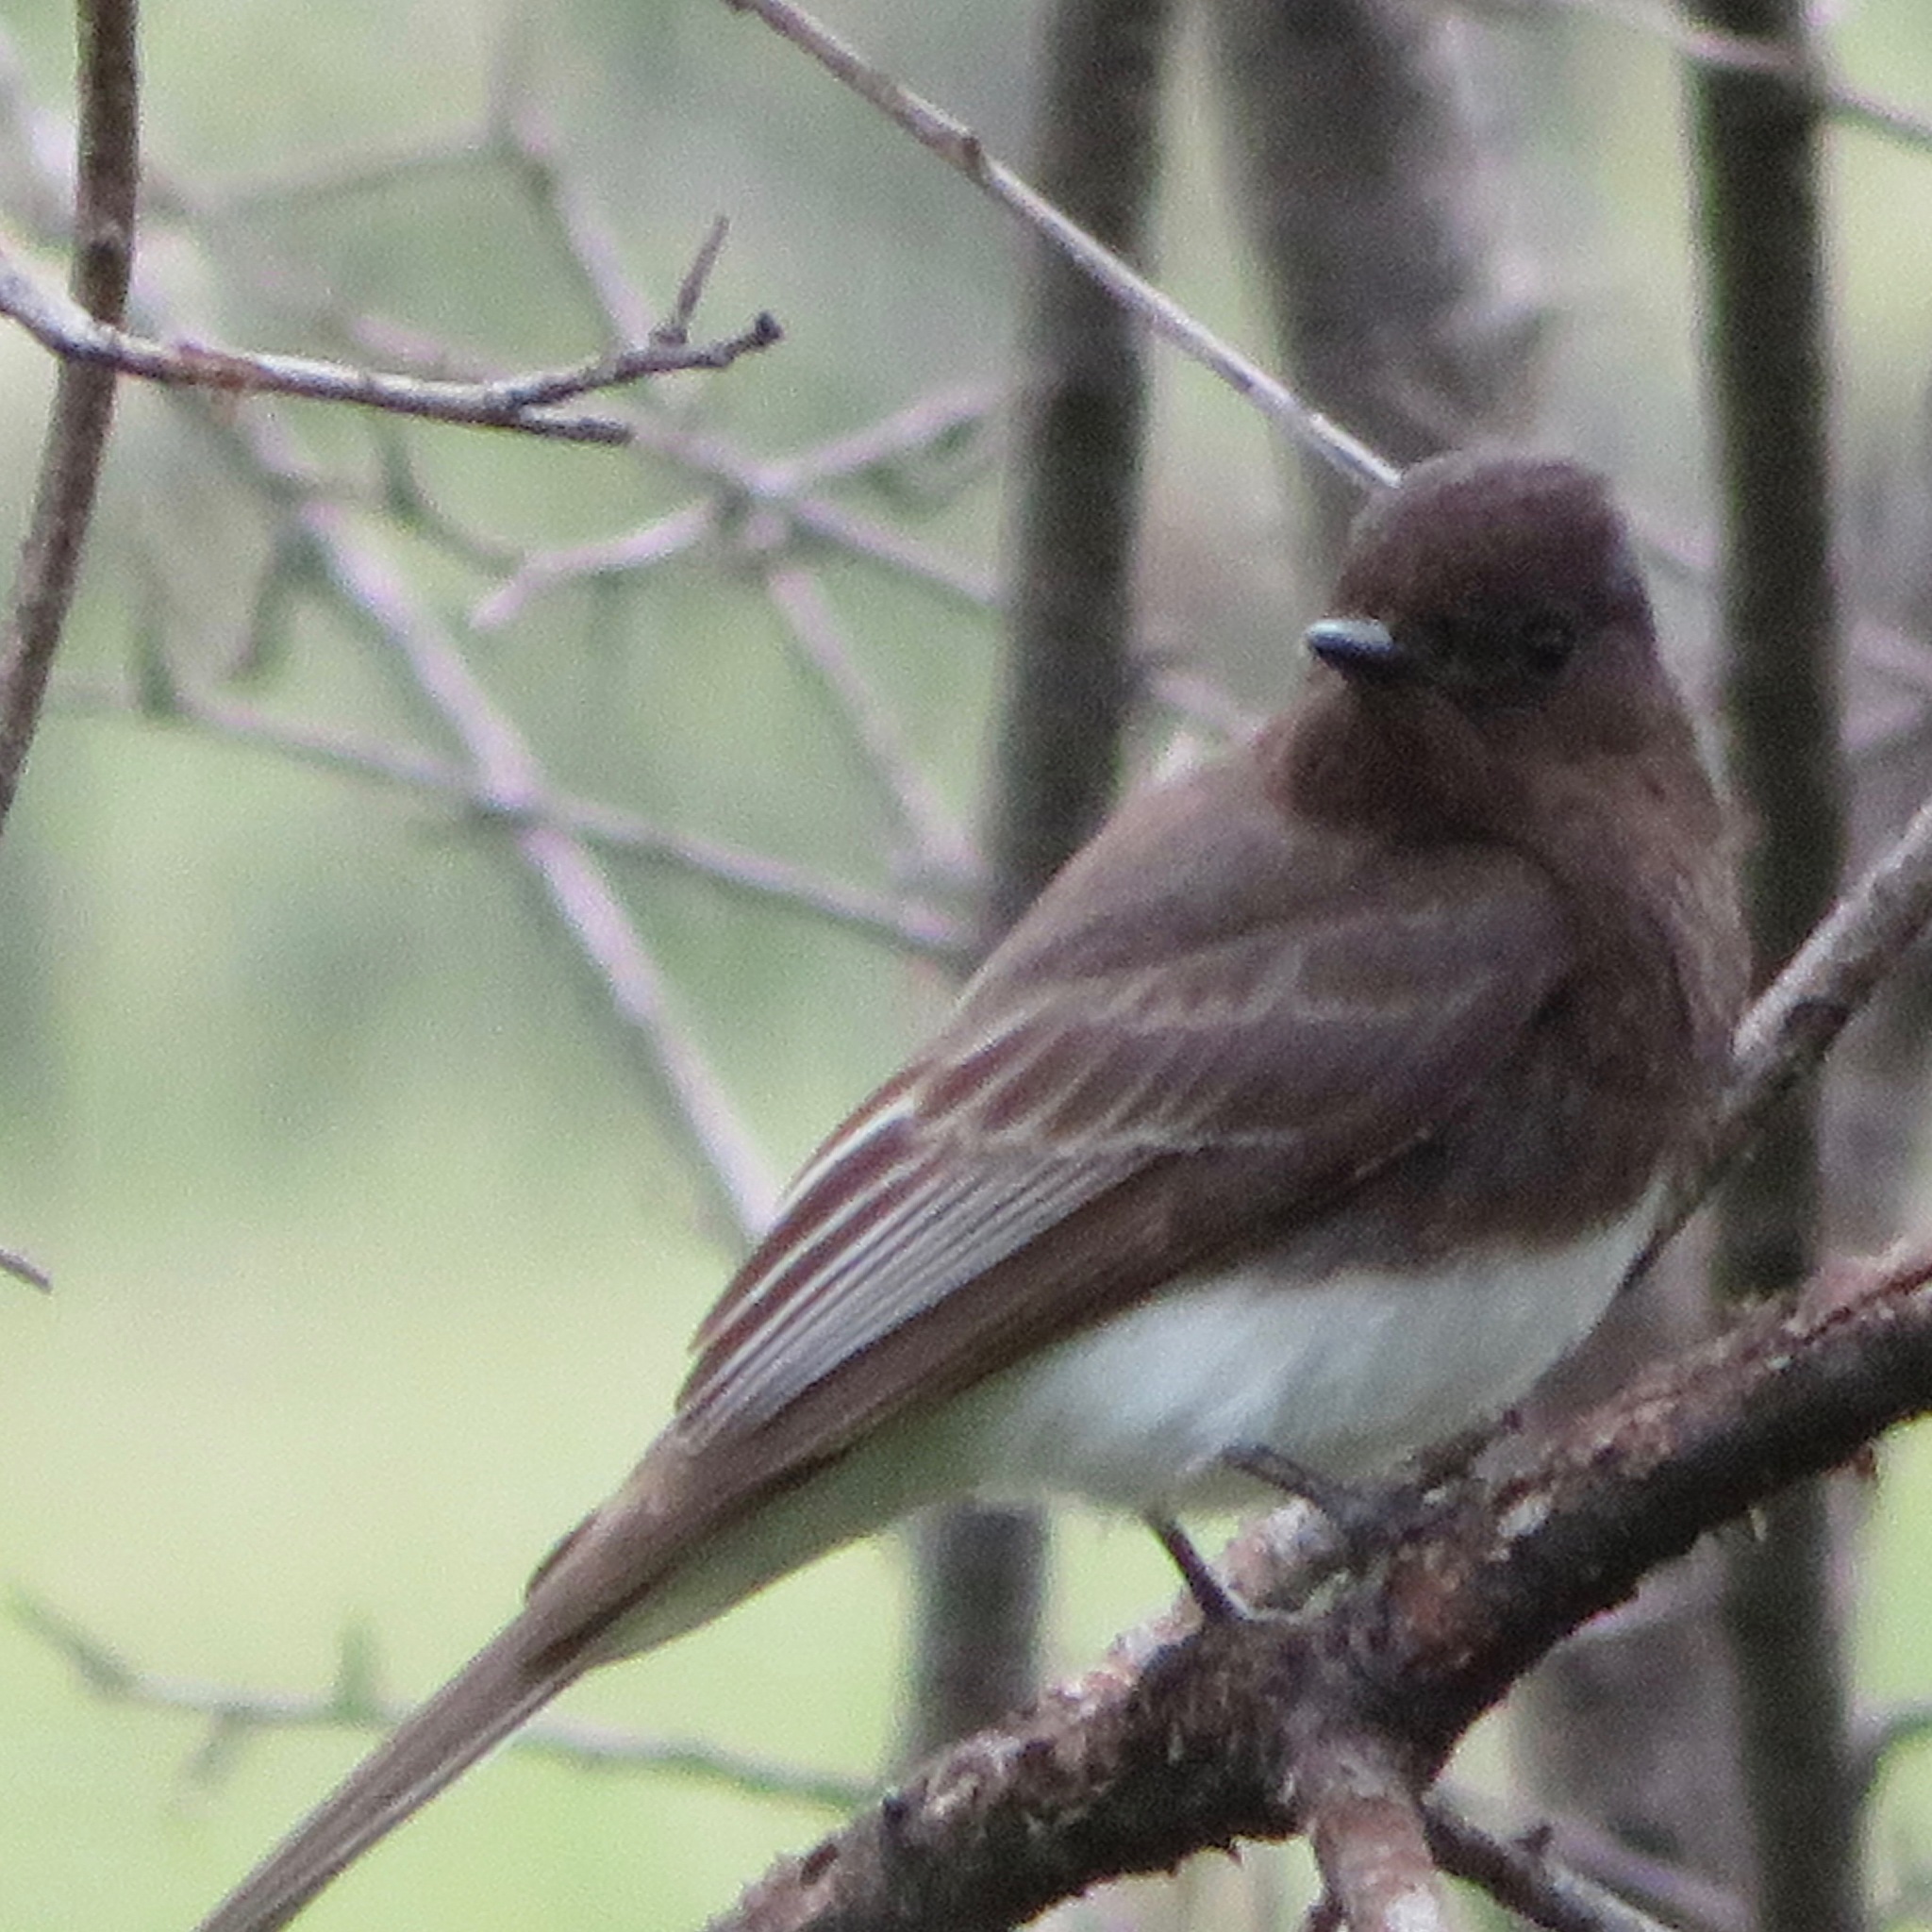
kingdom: Animalia
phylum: Chordata
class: Aves
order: Passeriformes
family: Tyrannidae
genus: Sayornis
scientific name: Sayornis nigricans
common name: Black phoebe
